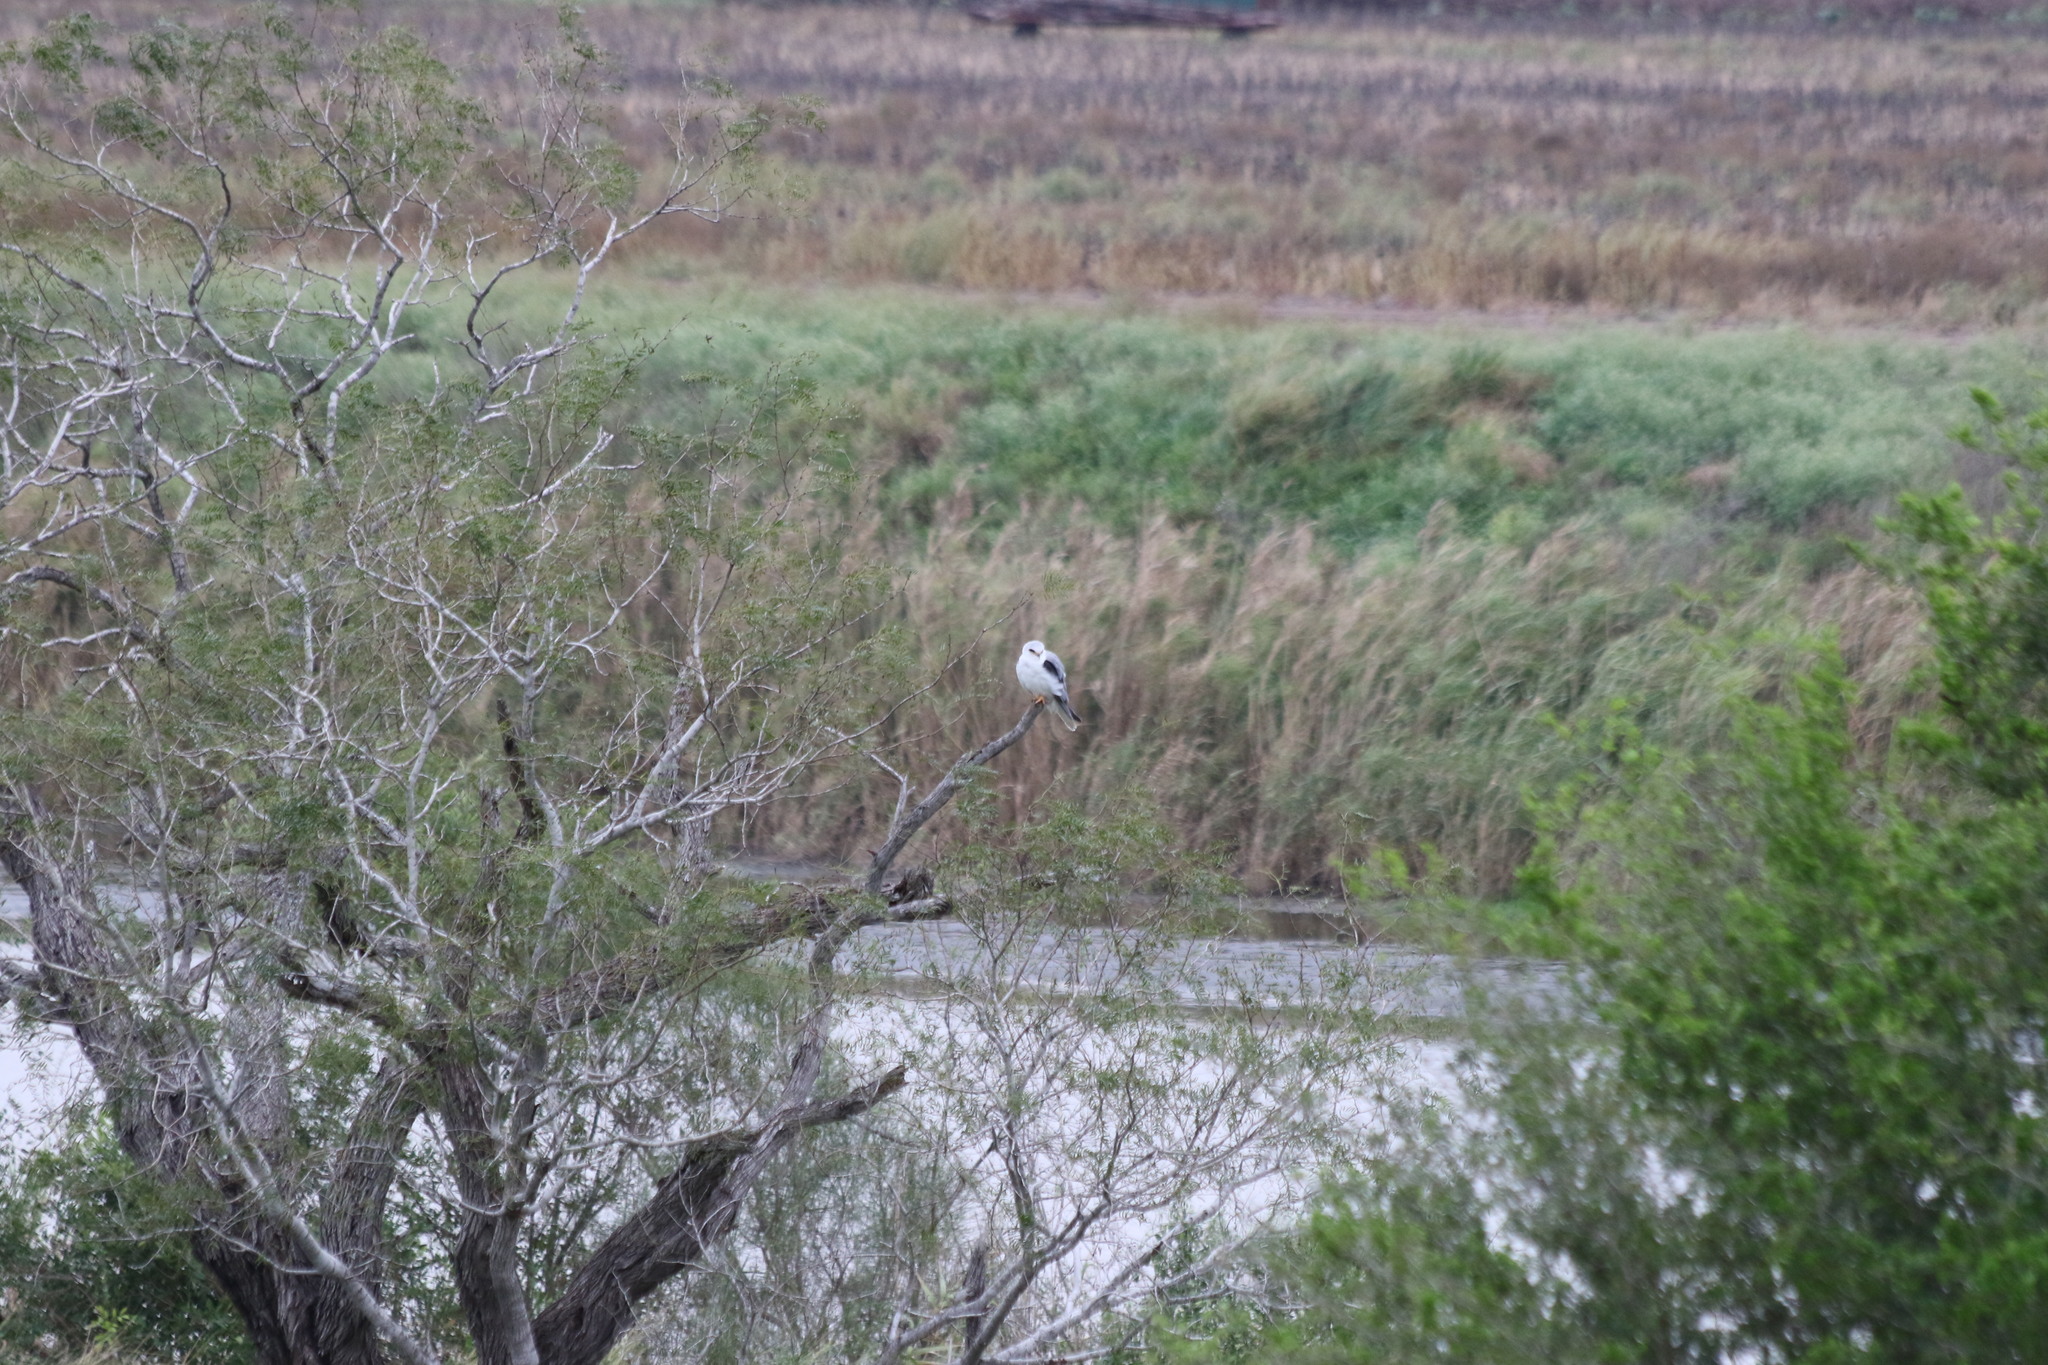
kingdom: Animalia
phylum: Chordata
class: Aves
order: Accipitriformes
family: Accipitridae
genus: Elanus
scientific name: Elanus leucurus
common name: White-tailed kite
